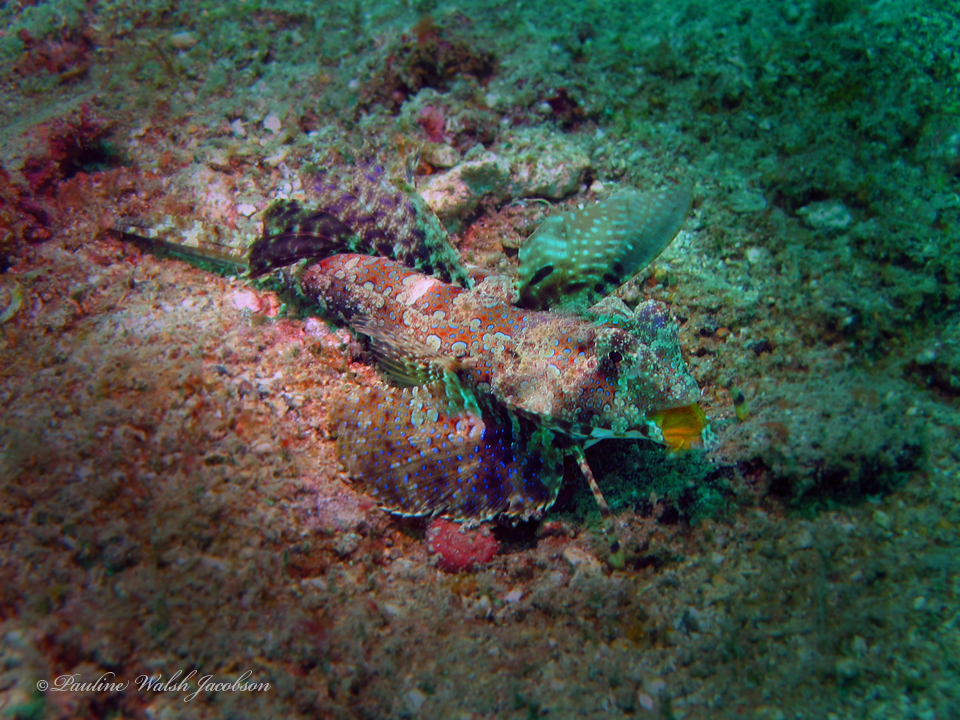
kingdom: Animalia
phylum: Chordata
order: Perciformes
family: Callionymidae
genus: Dactylopus
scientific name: Dactylopus kuiteri
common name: Kuiter's dragonet
